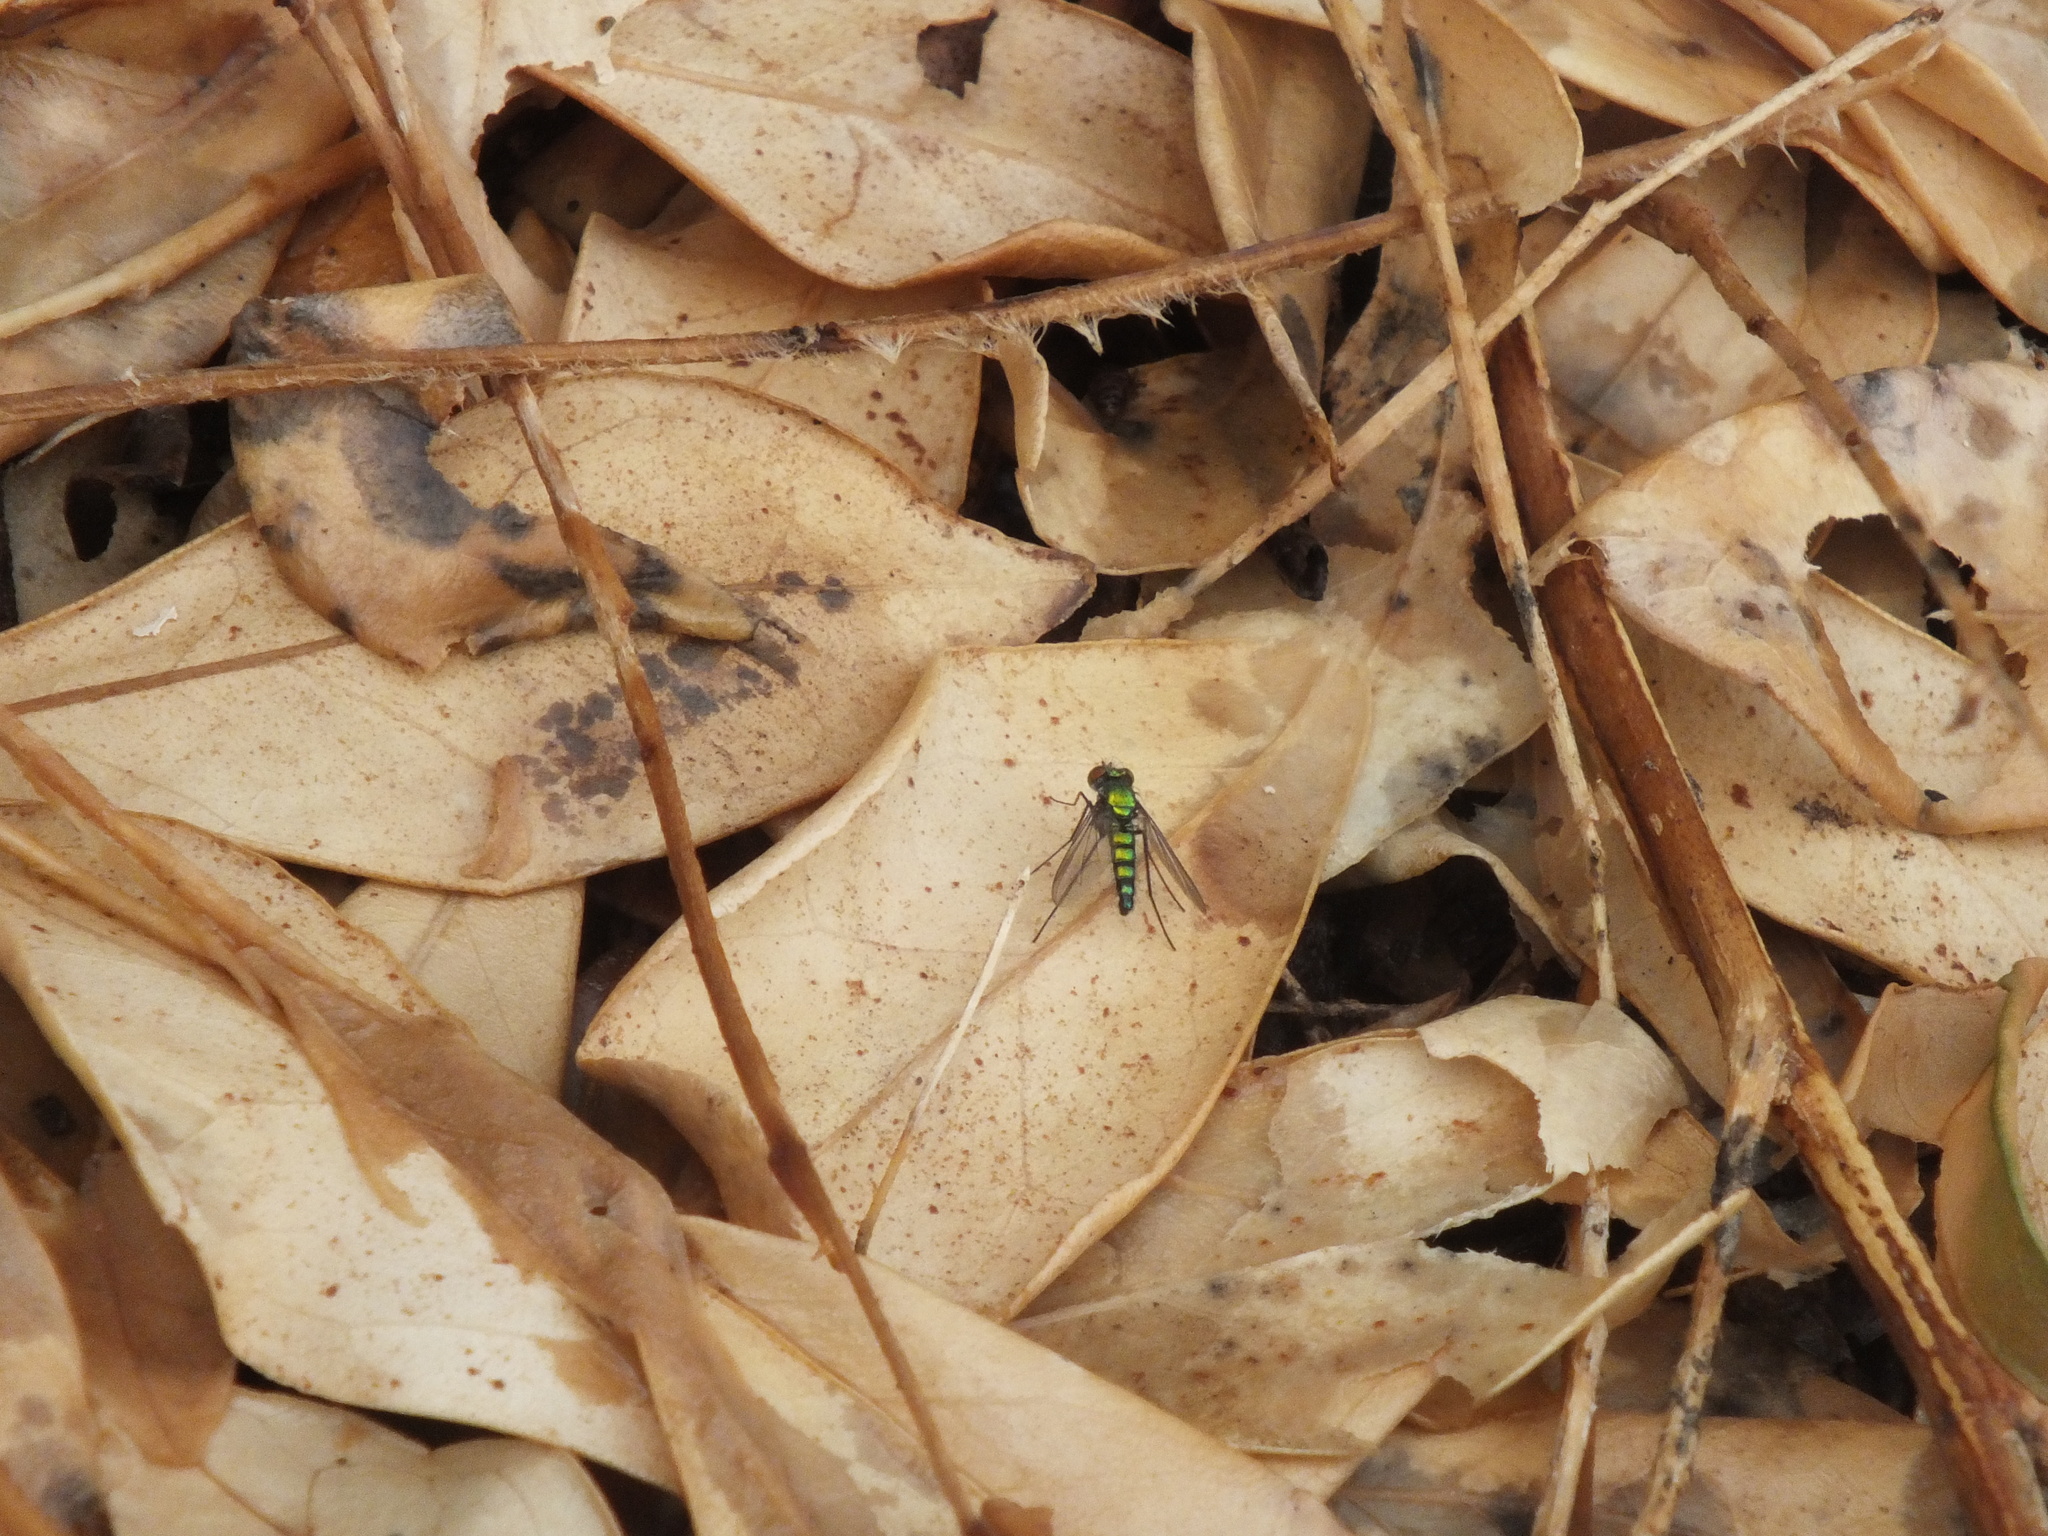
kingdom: Animalia
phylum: Arthropoda
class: Insecta
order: Diptera
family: Dolichopodidae
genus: Condylostylus
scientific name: Condylostylus longicornis
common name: Long-legged fly
